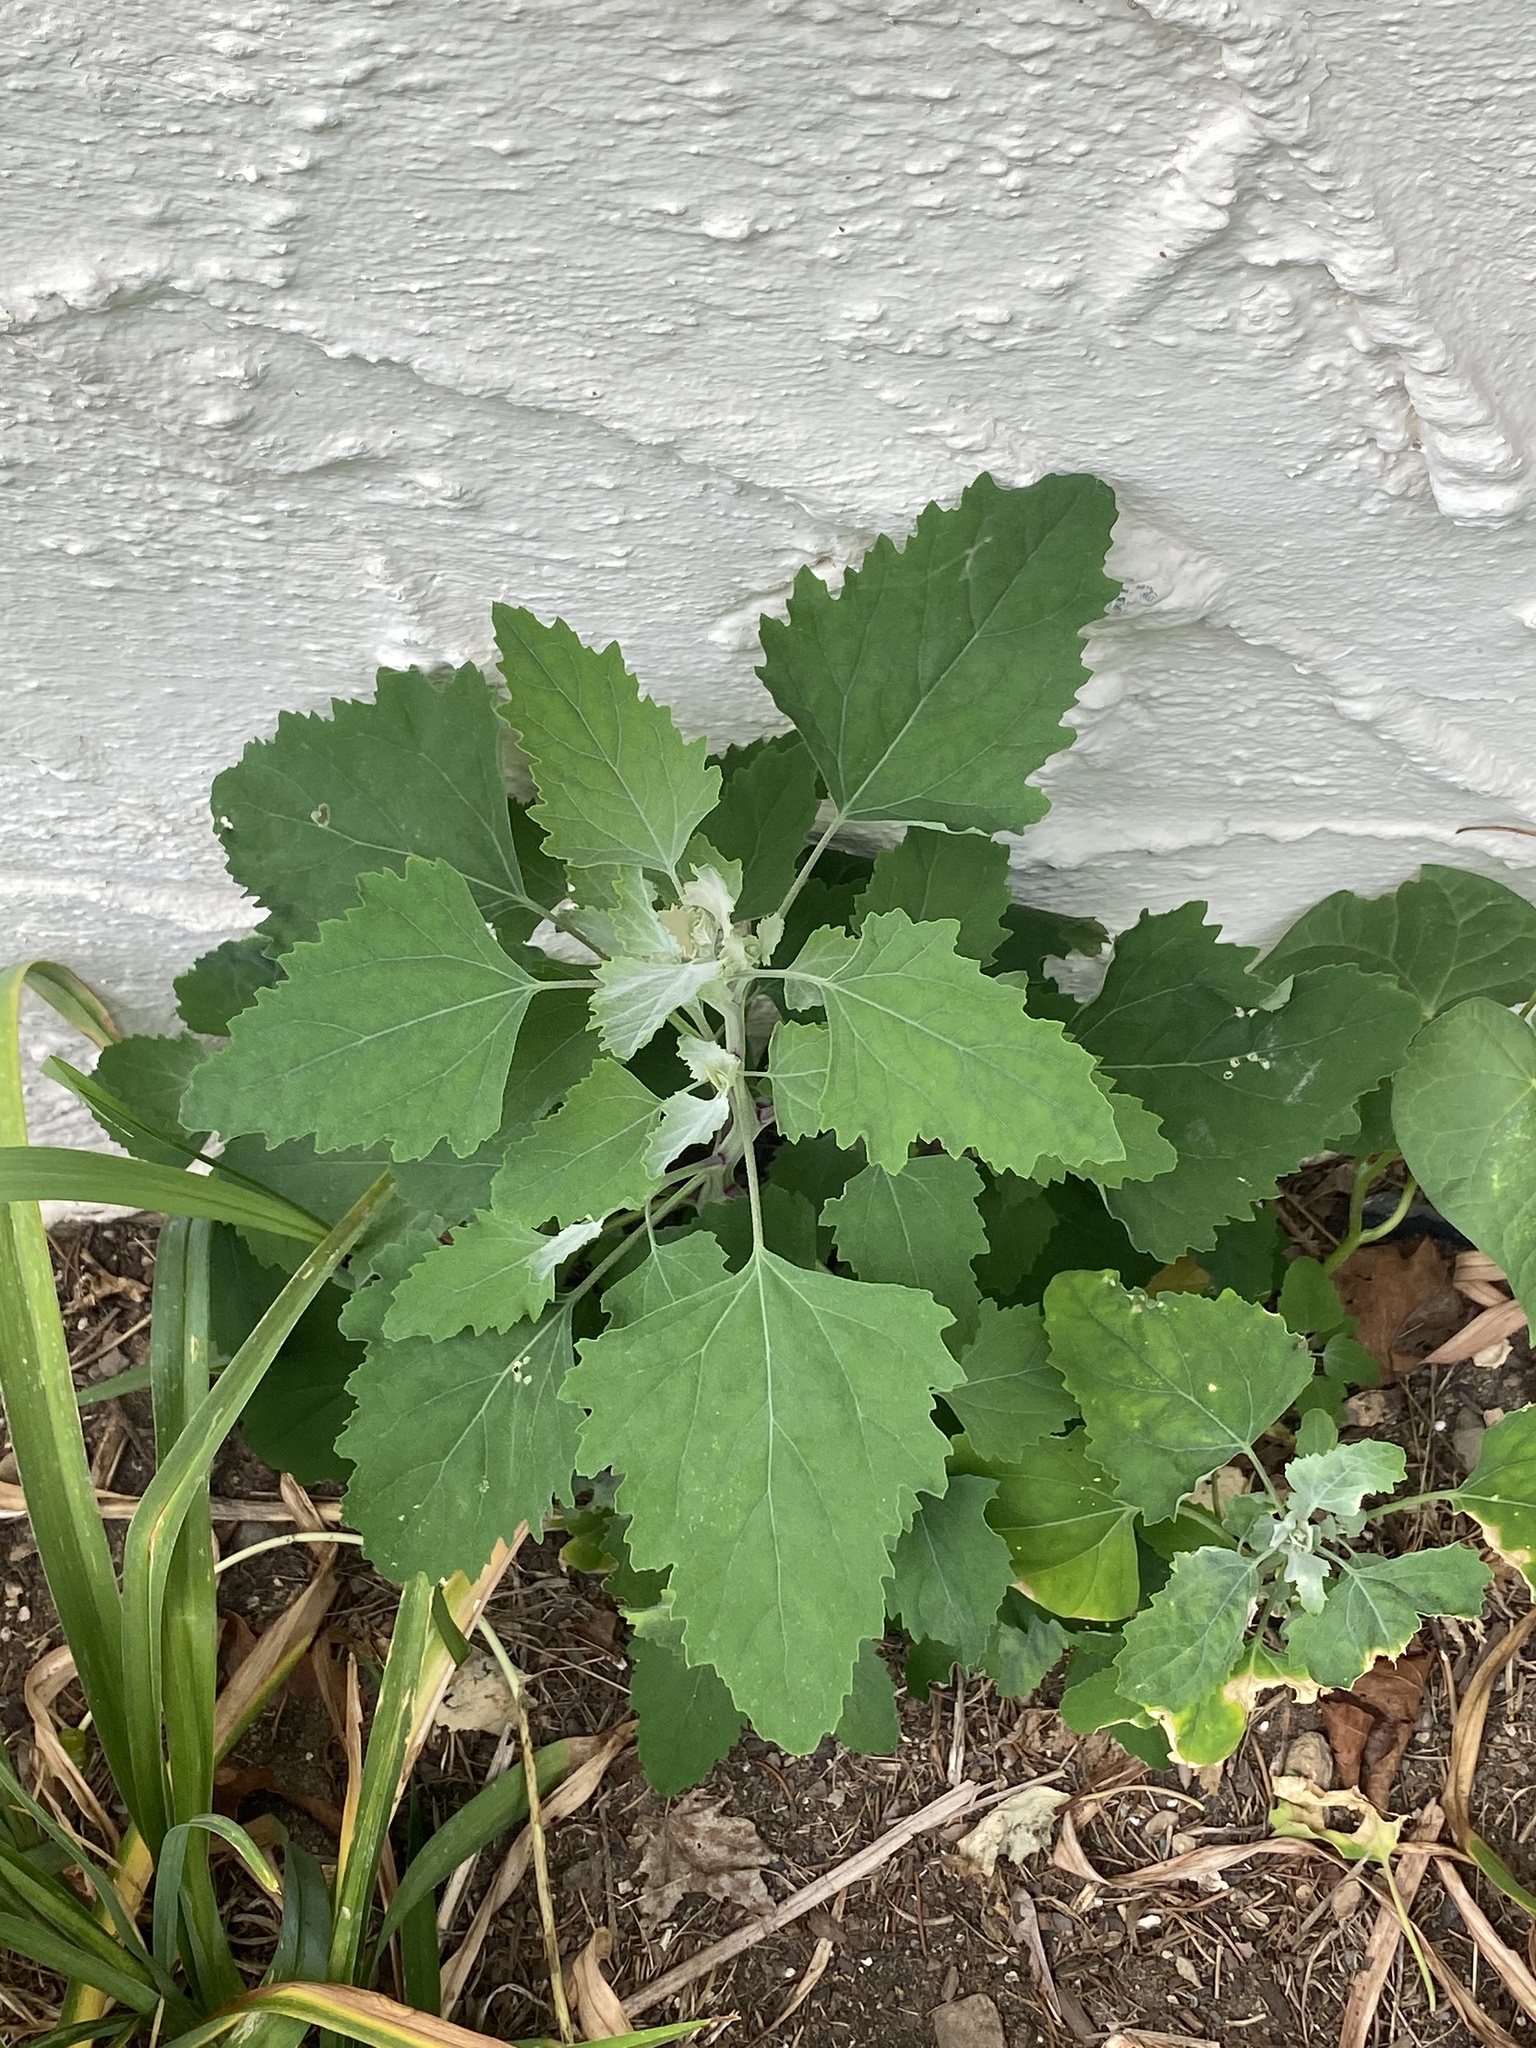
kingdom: Plantae
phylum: Tracheophyta
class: Magnoliopsida
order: Caryophyllales
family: Amaranthaceae
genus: Chenopodium
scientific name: Chenopodium album
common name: Fat-hen
